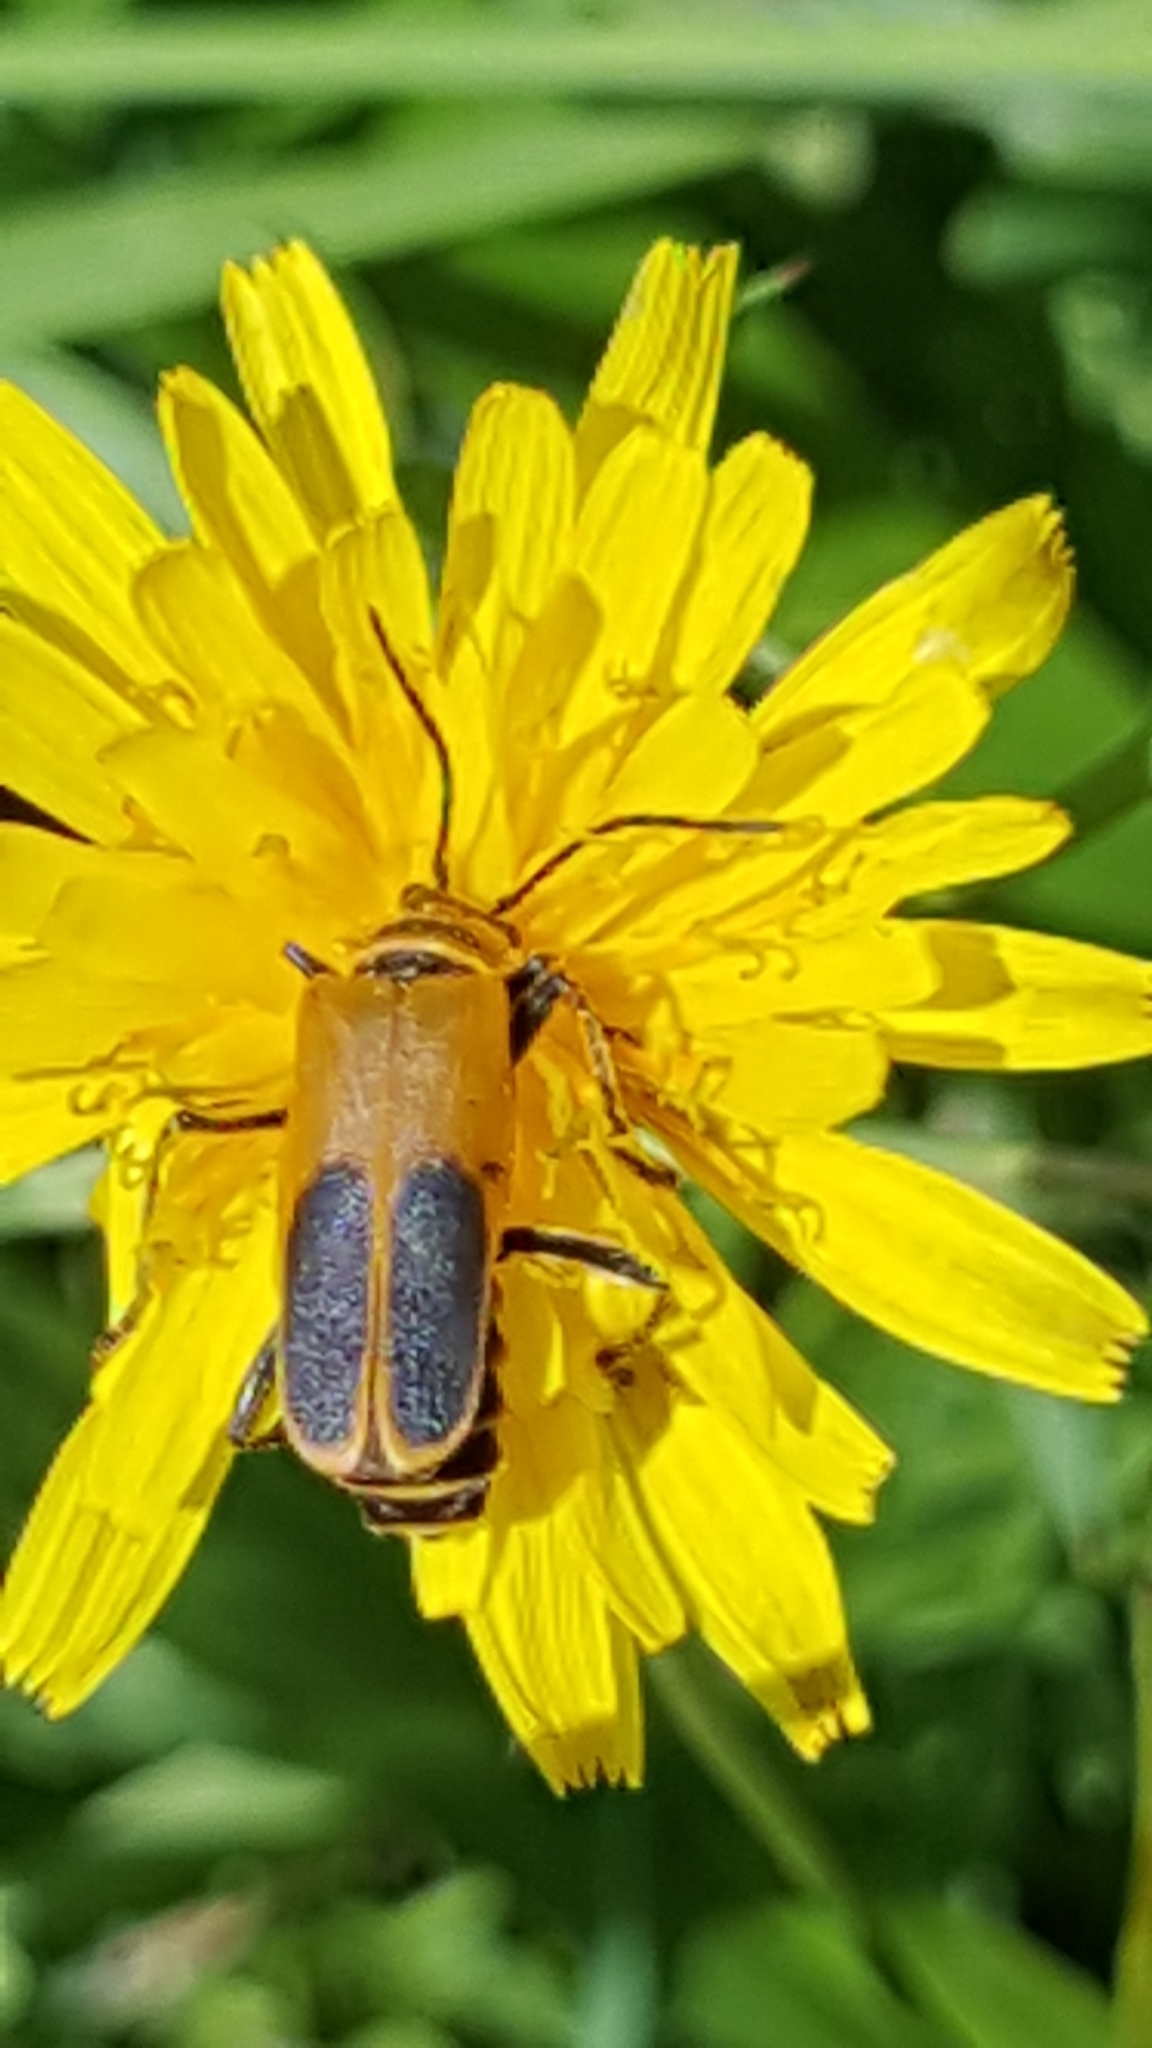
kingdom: Animalia
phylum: Arthropoda
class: Insecta
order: Coleoptera
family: Cantharidae
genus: Chauliognathus
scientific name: Chauliognathus pensylvanicus
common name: Goldenrod soldier beetle
